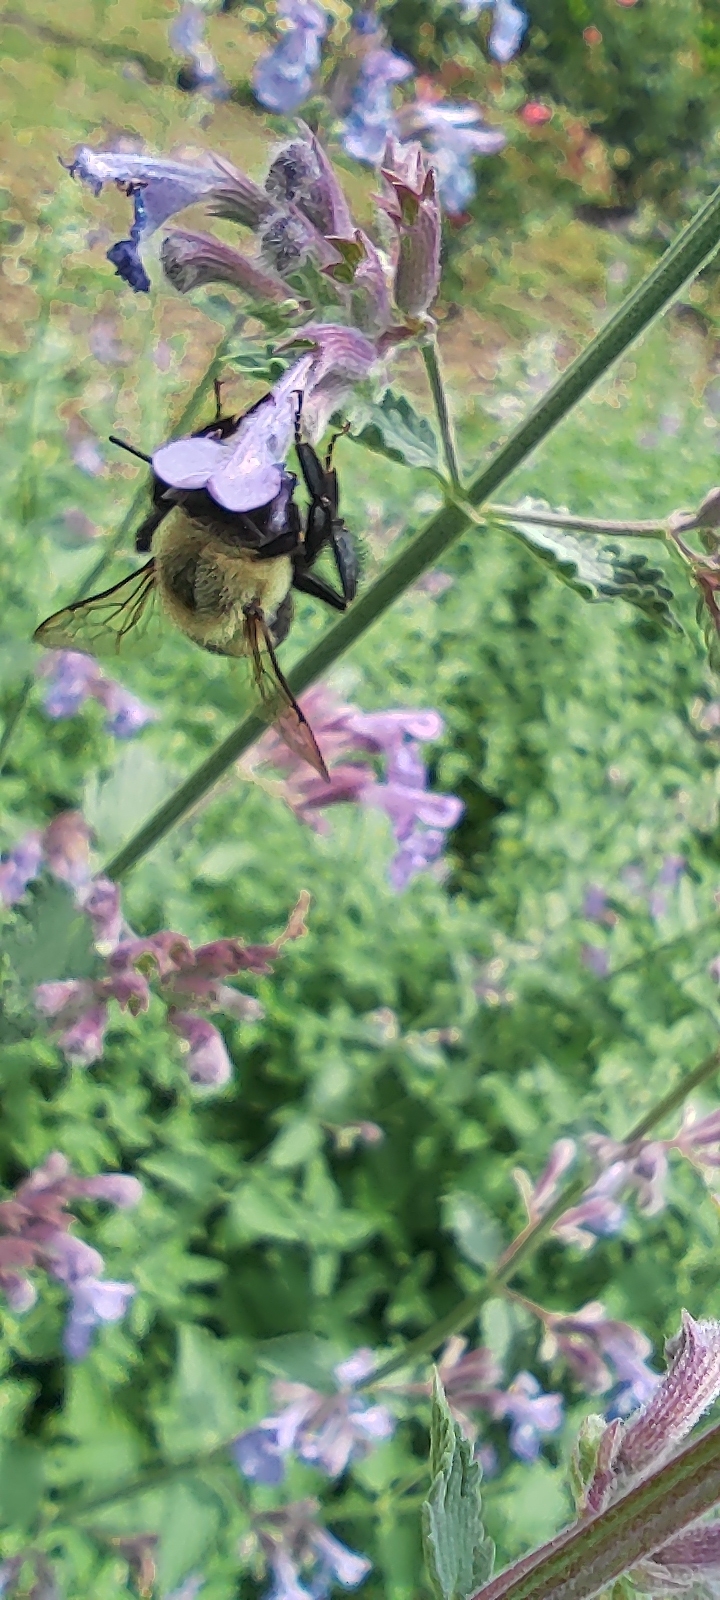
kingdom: Animalia
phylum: Arthropoda
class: Insecta
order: Hymenoptera
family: Apidae
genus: Bombus
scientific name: Bombus impatiens
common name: Common eastern bumble bee
